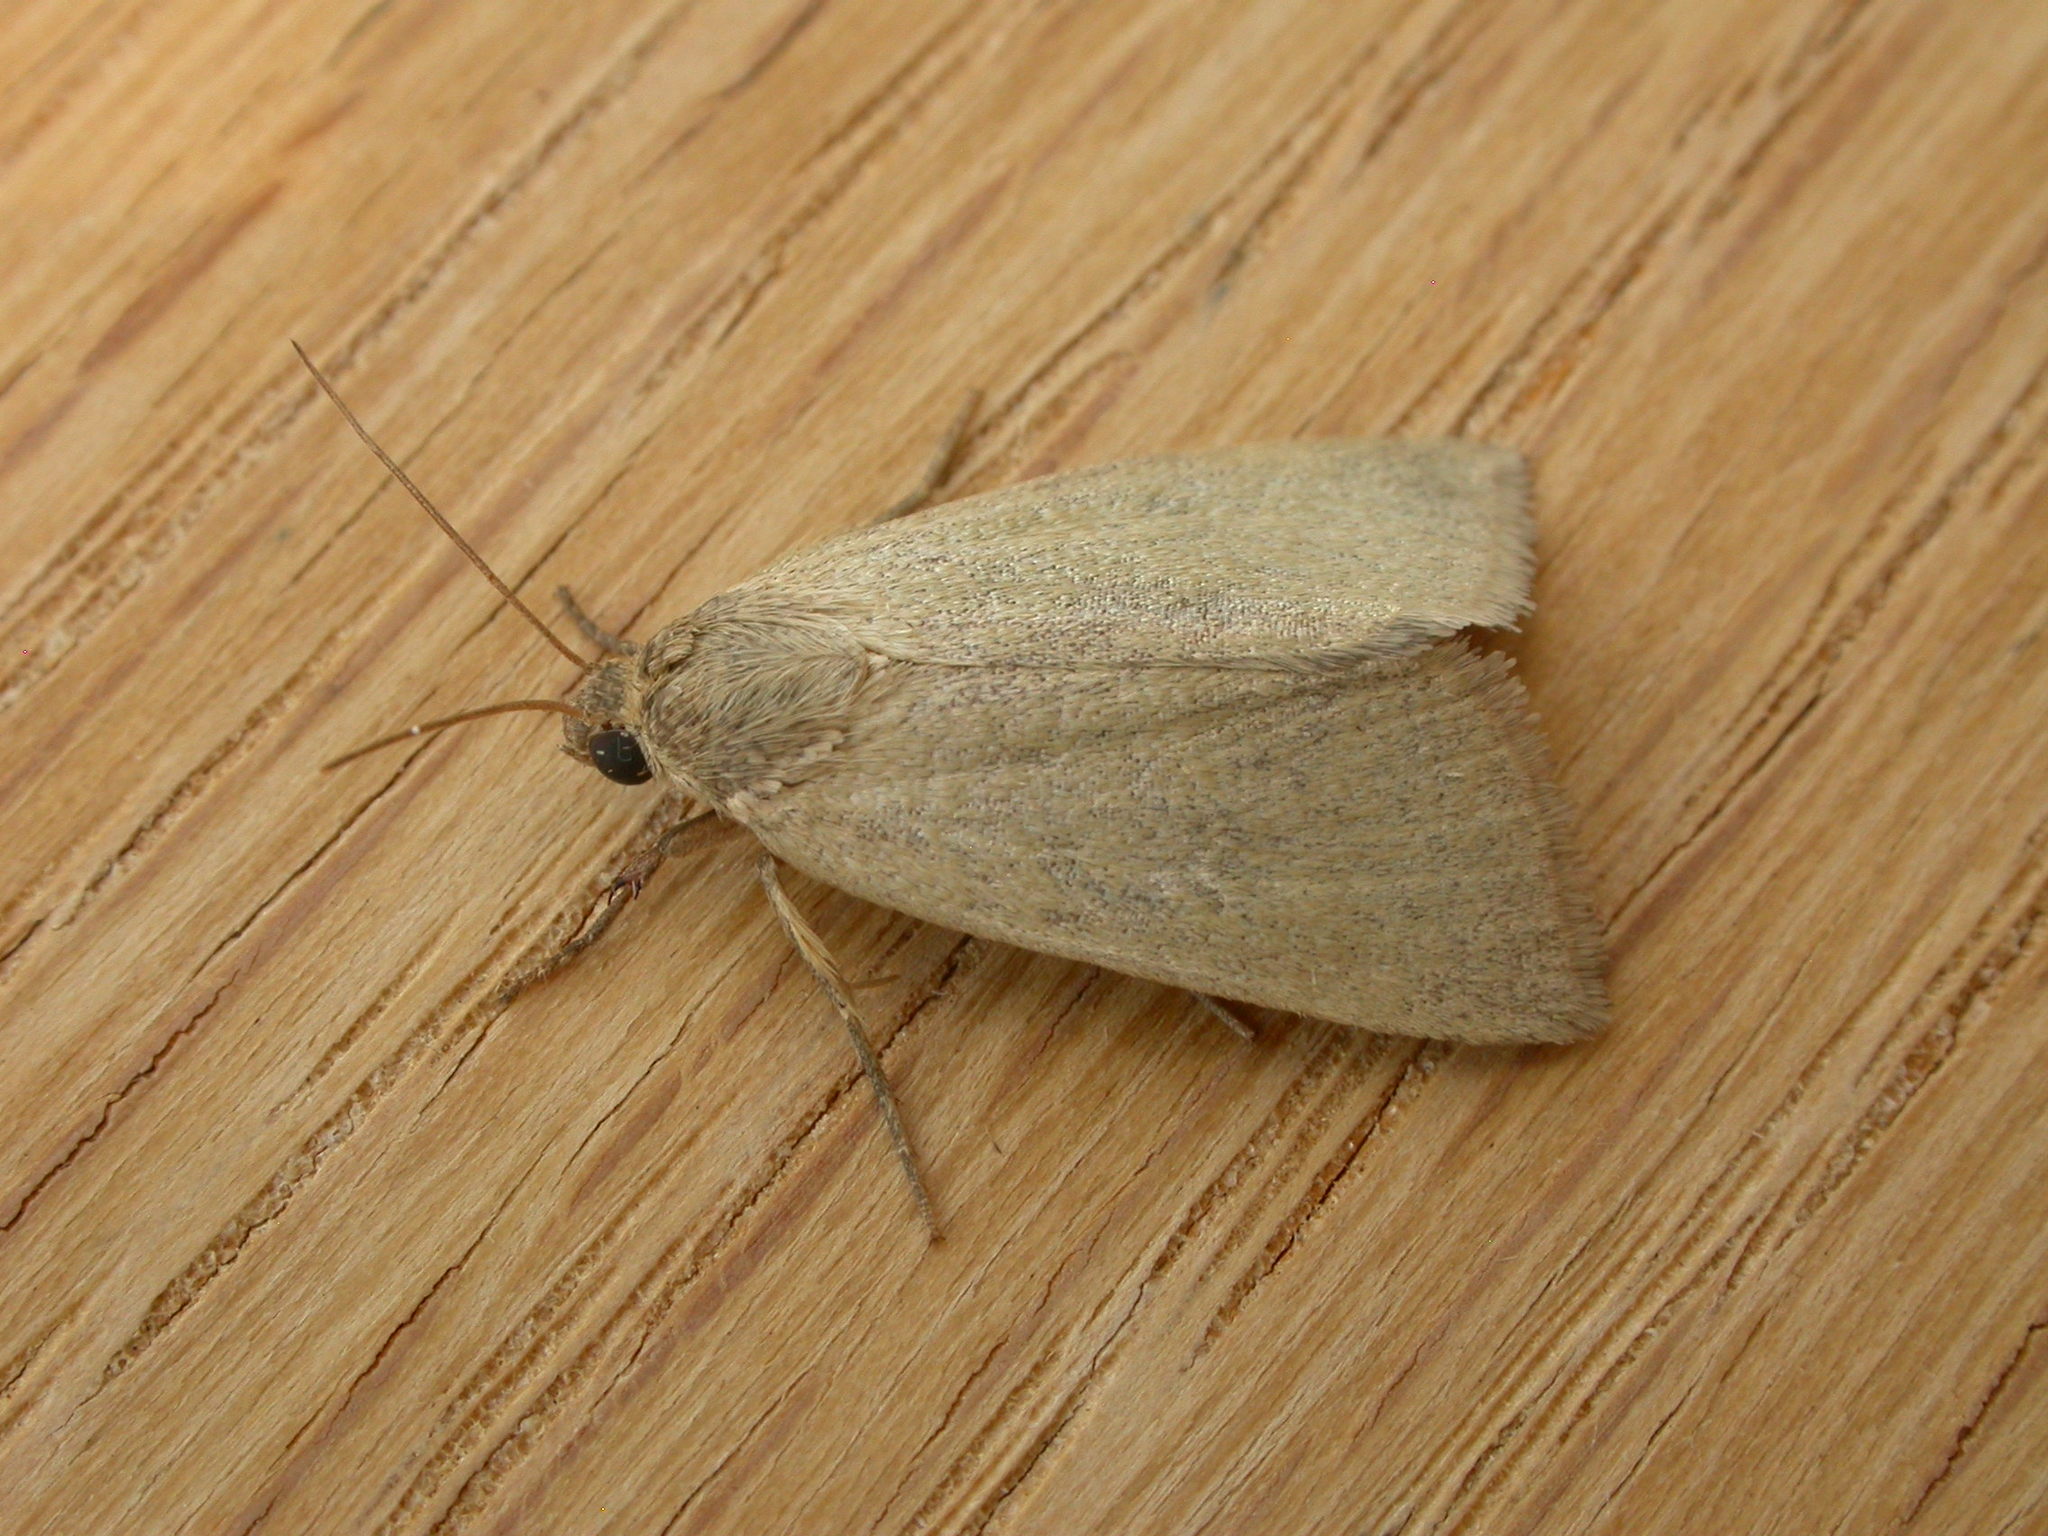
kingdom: Animalia
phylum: Arthropoda
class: Insecta
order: Lepidoptera
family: Noctuidae
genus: Heliocheilus
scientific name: Heliocheilus moribunda
